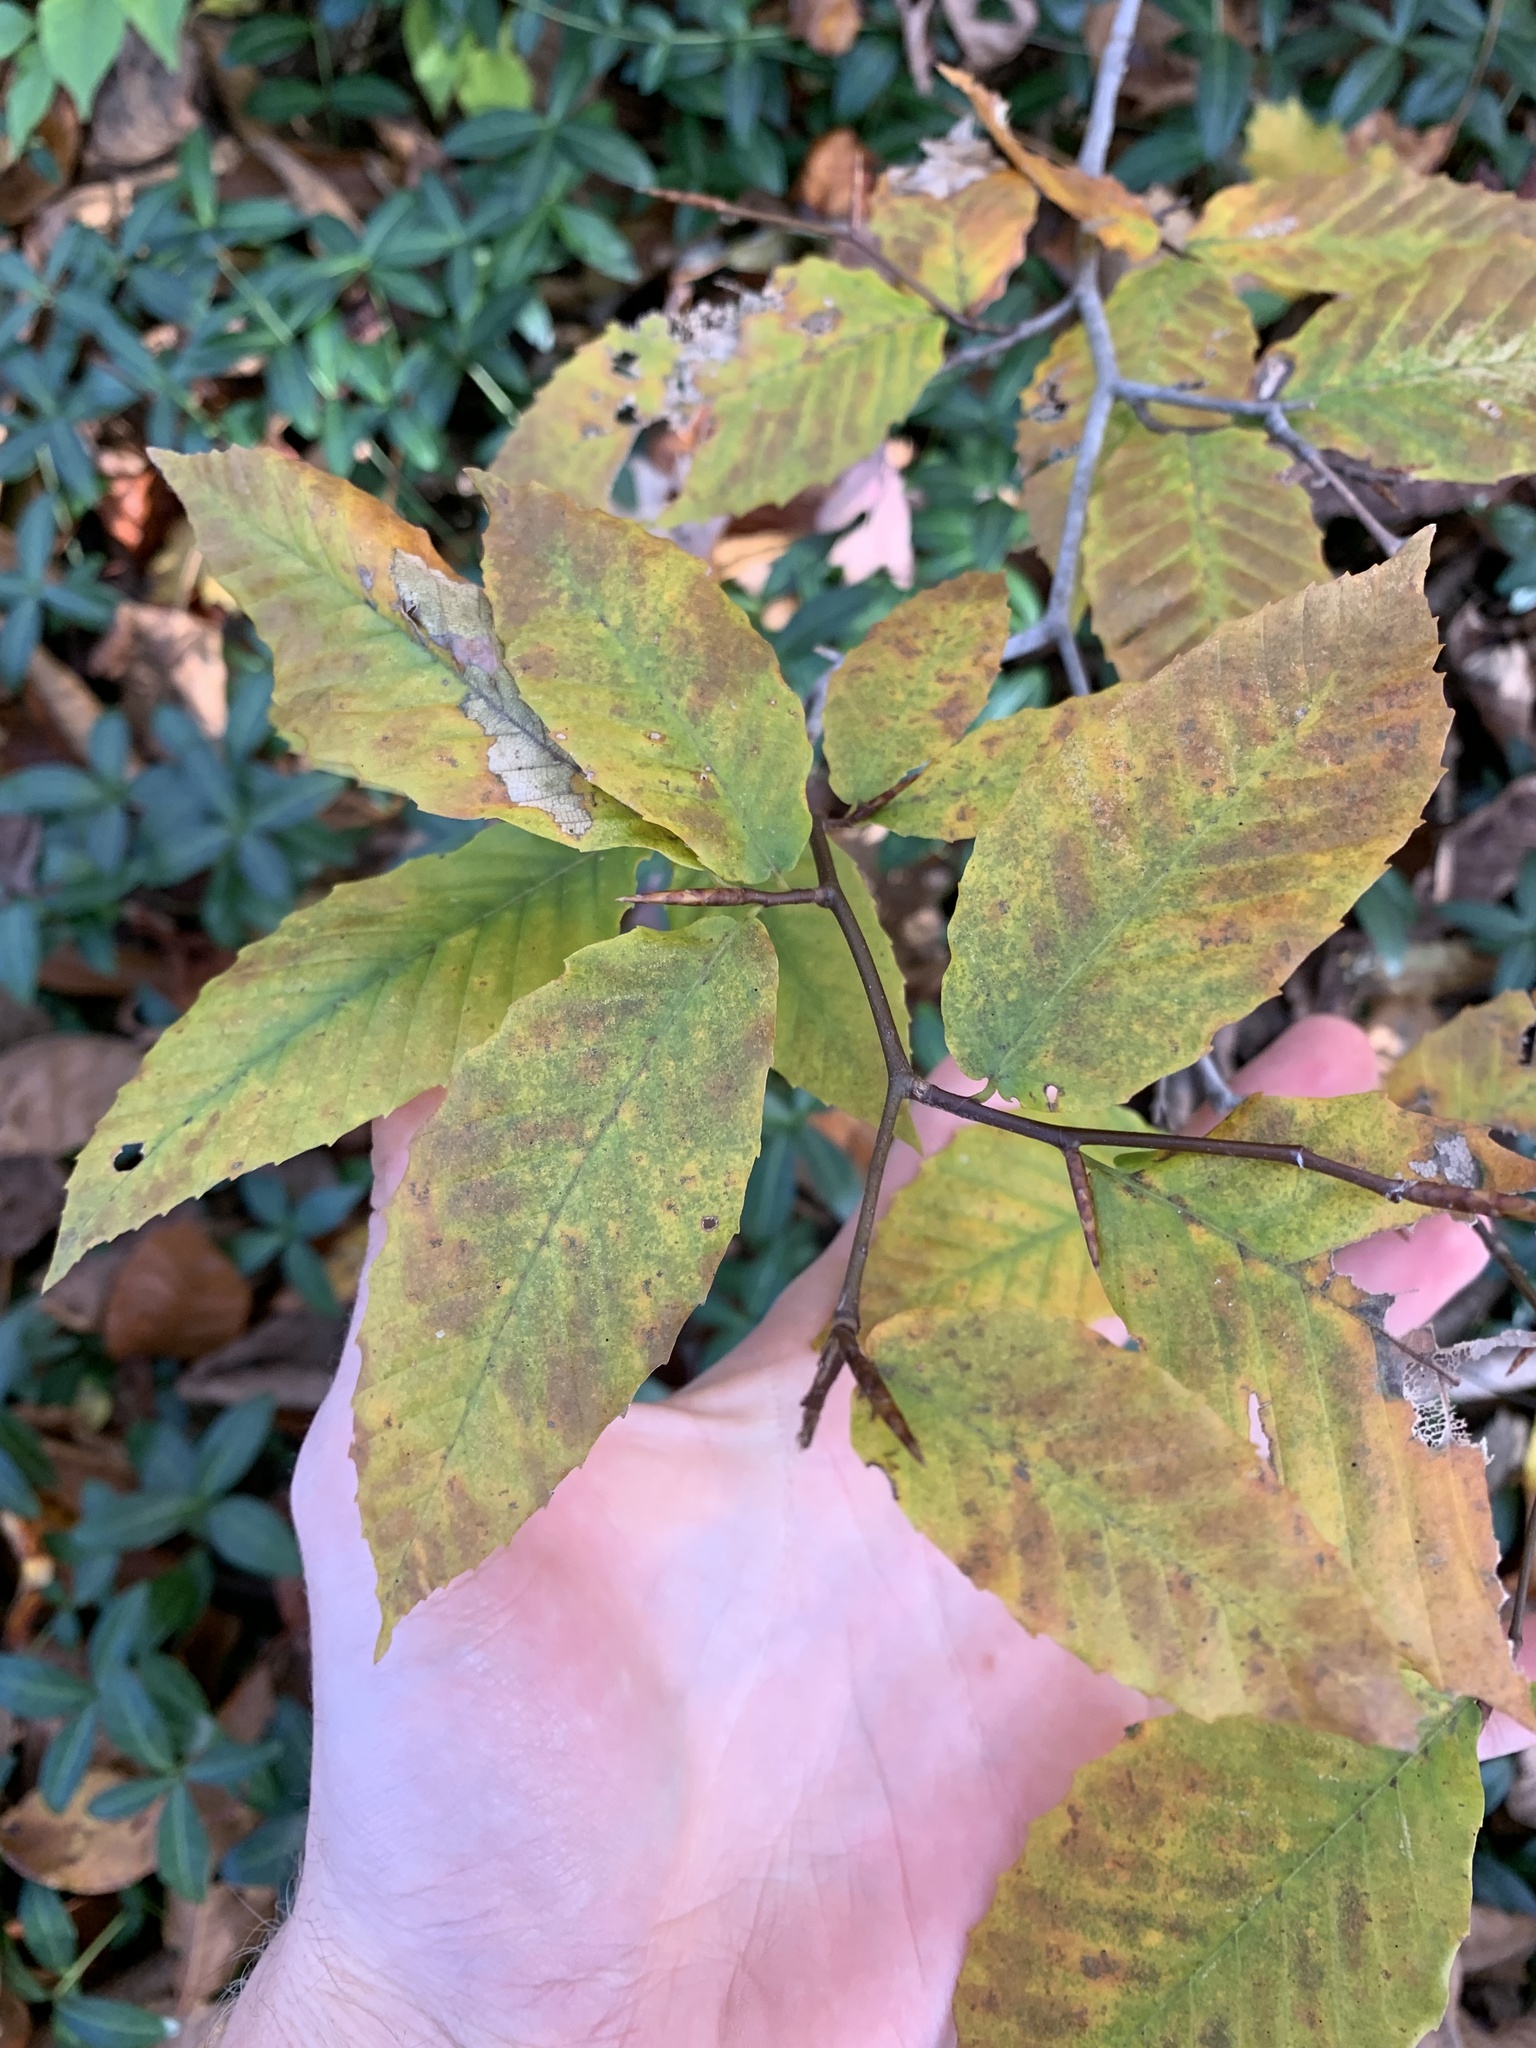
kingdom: Plantae
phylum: Tracheophyta
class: Magnoliopsida
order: Fagales
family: Fagaceae
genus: Fagus
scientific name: Fagus grandifolia
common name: American beech
